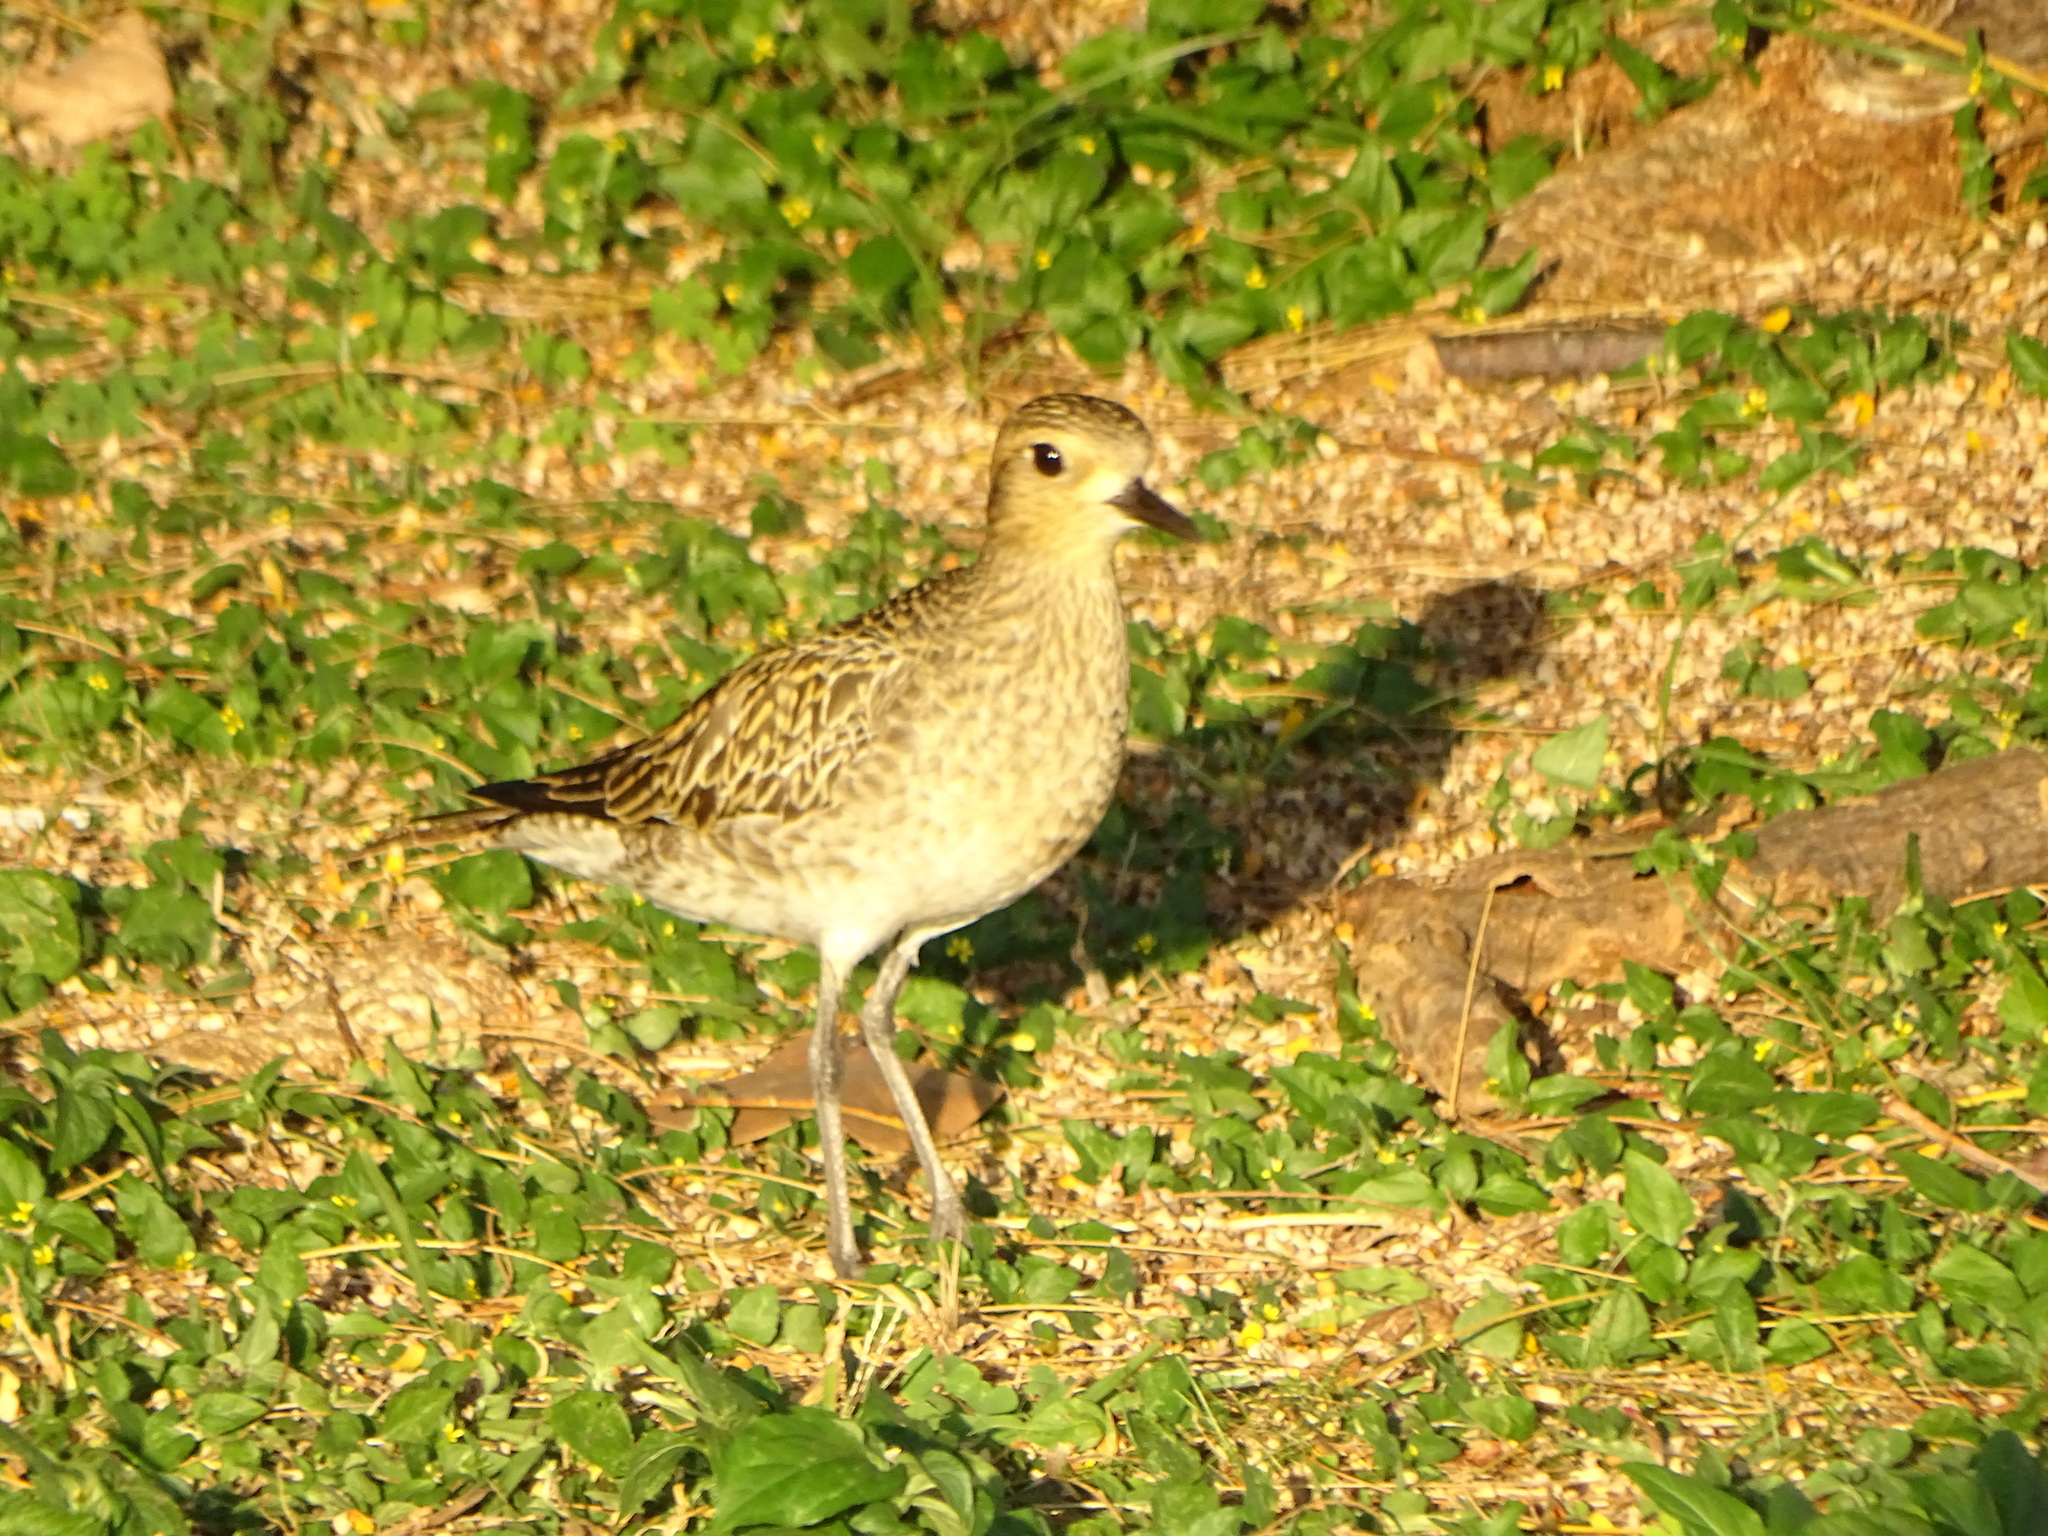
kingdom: Animalia
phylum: Chordata
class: Aves
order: Charadriiformes
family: Charadriidae
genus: Pluvialis
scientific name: Pluvialis fulva
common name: Pacific golden plover
